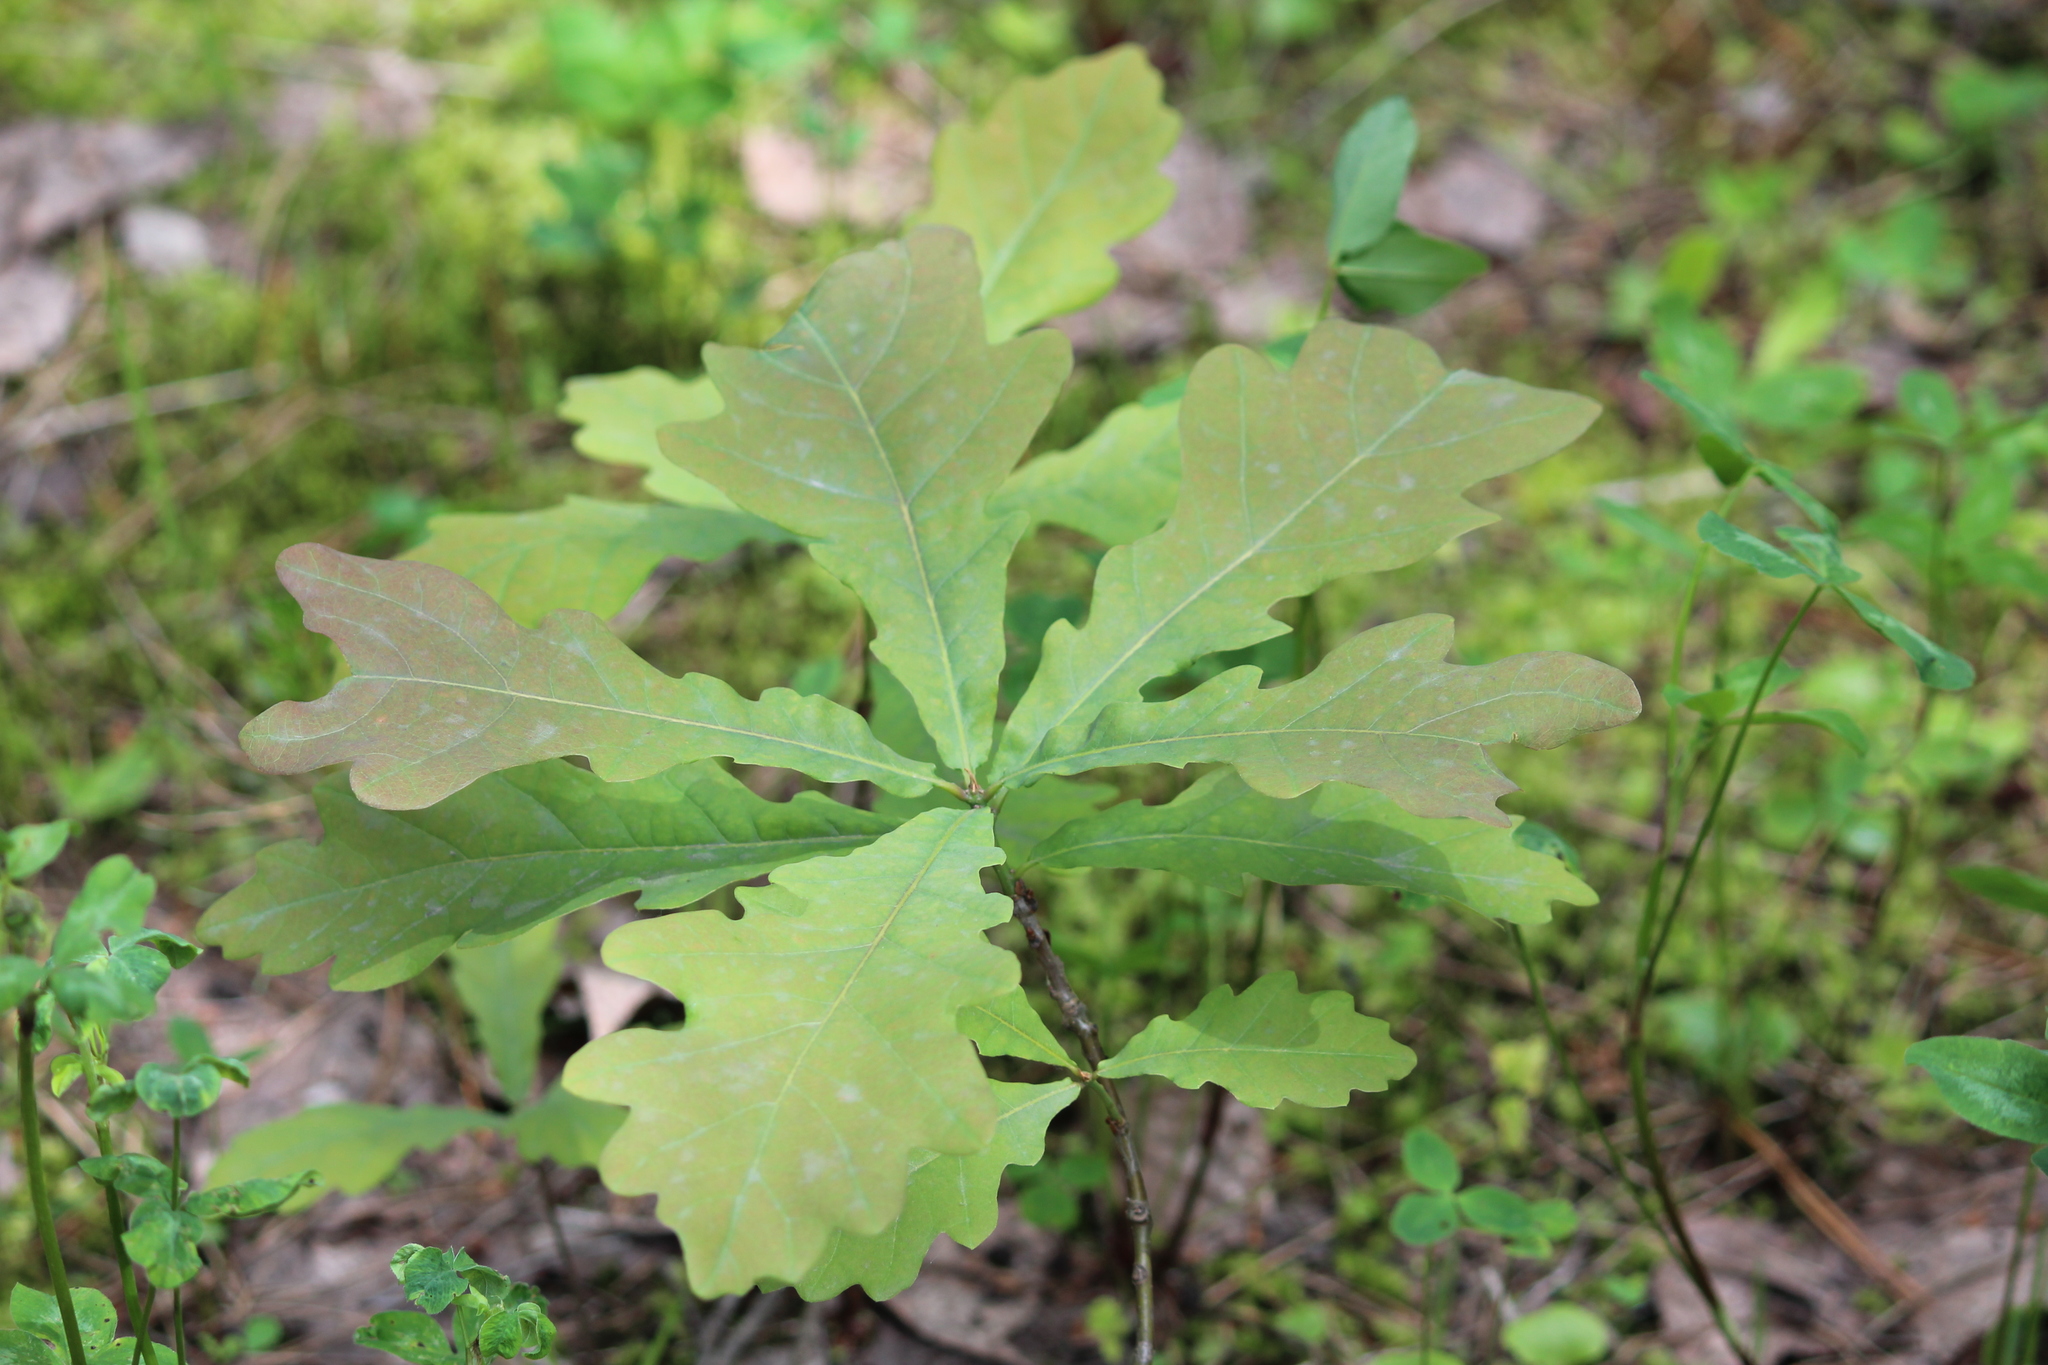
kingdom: Plantae
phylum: Tracheophyta
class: Magnoliopsida
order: Fagales
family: Fagaceae
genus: Quercus
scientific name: Quercus robur
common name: Pedunculate oak
